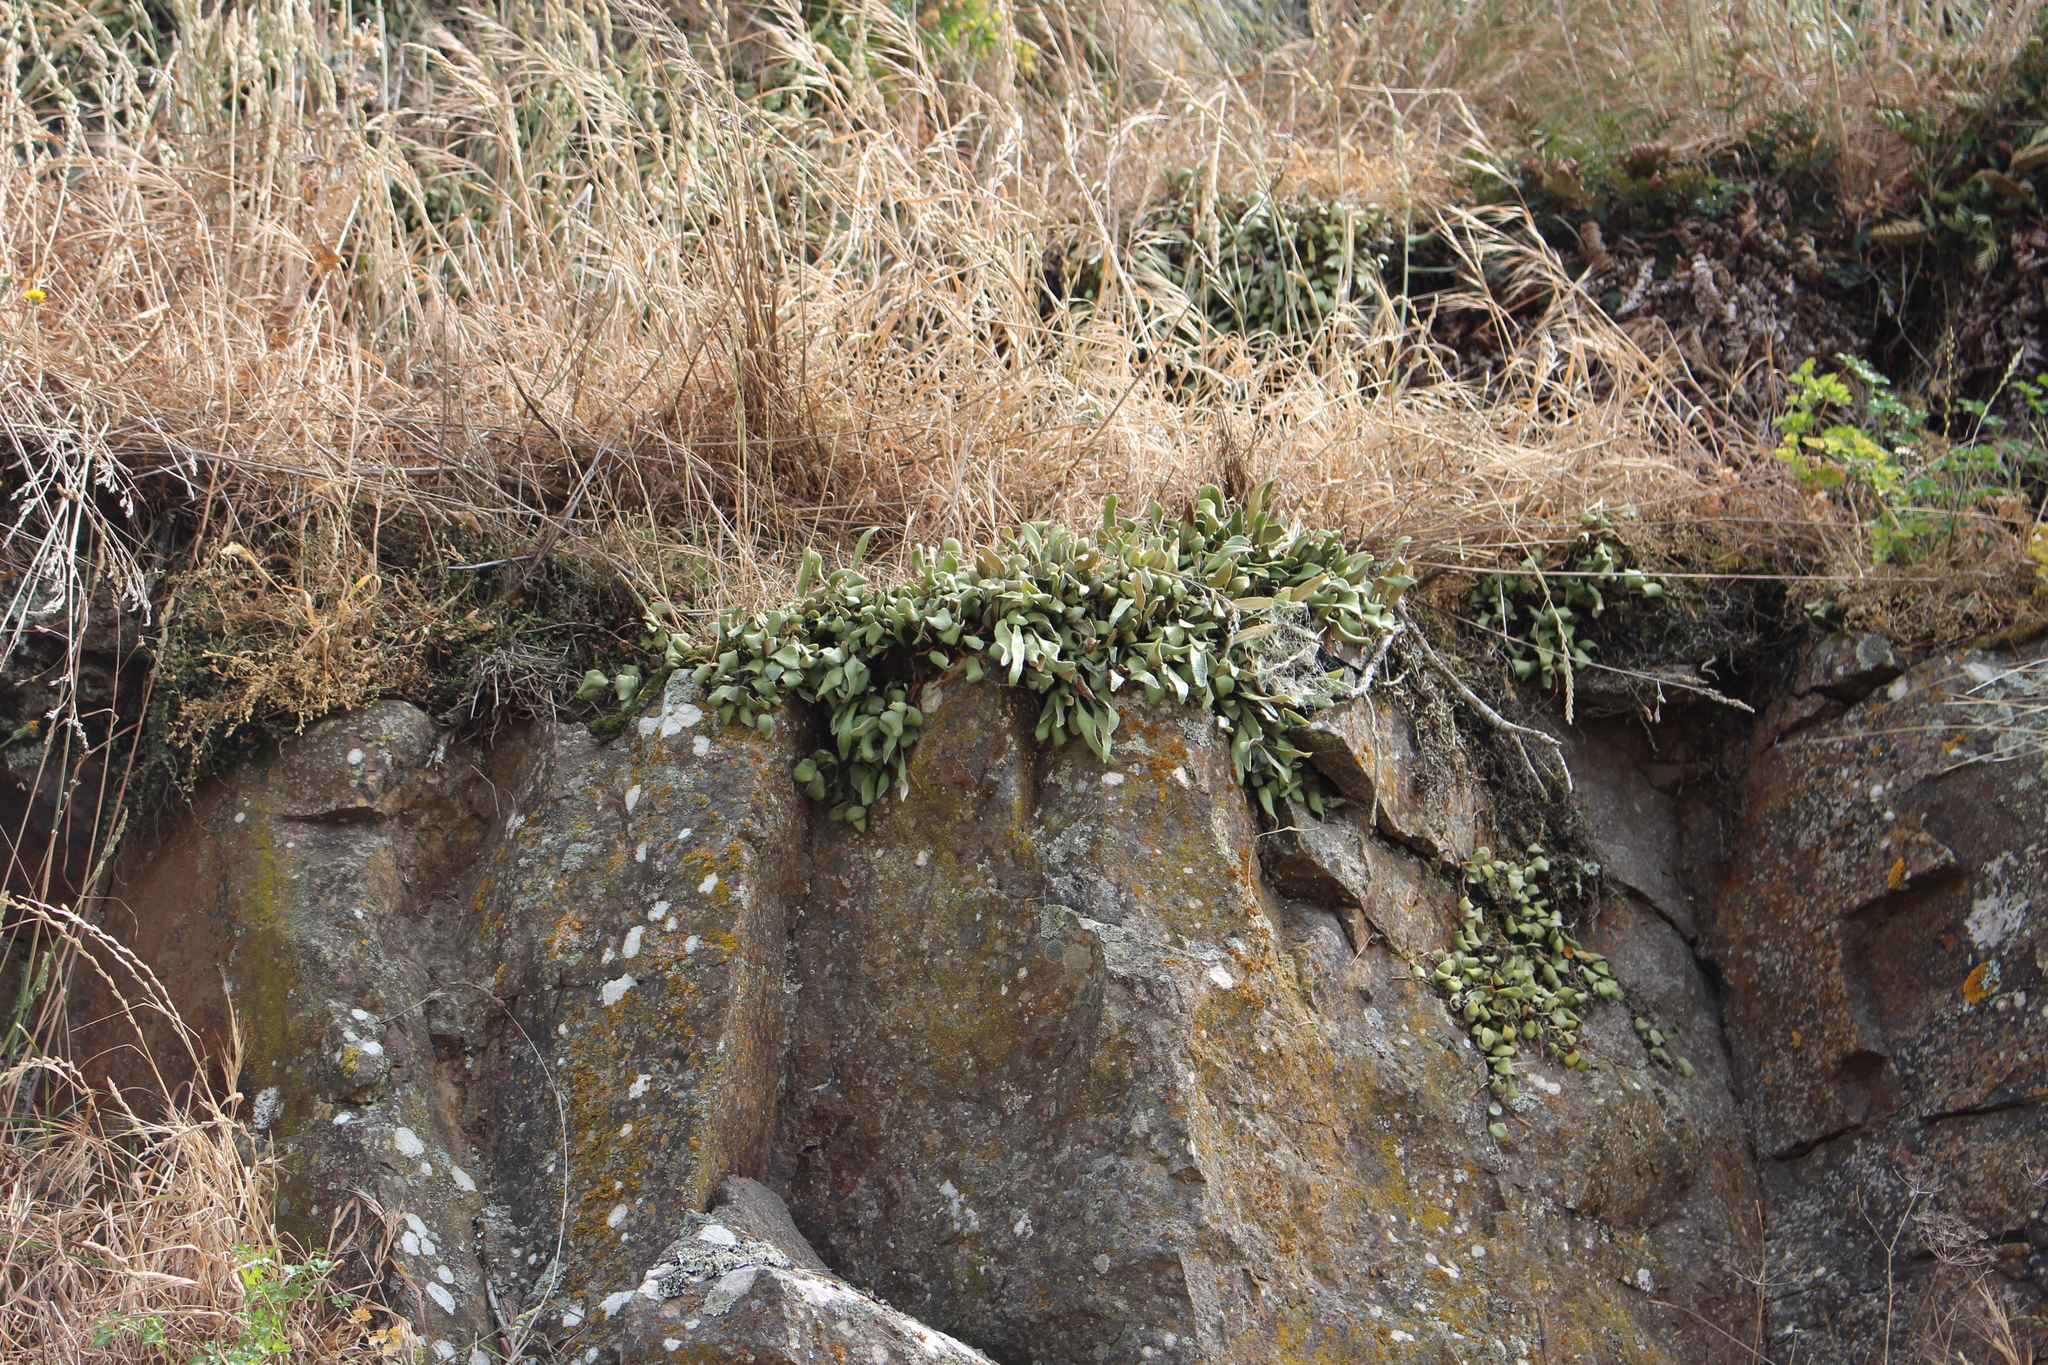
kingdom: Plantae
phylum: Tracheophyta
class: Polypodiopsida
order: Polypodiales
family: Polypodiaceae
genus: Pyrrosia
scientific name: Pyrrosia eleagnifolia
